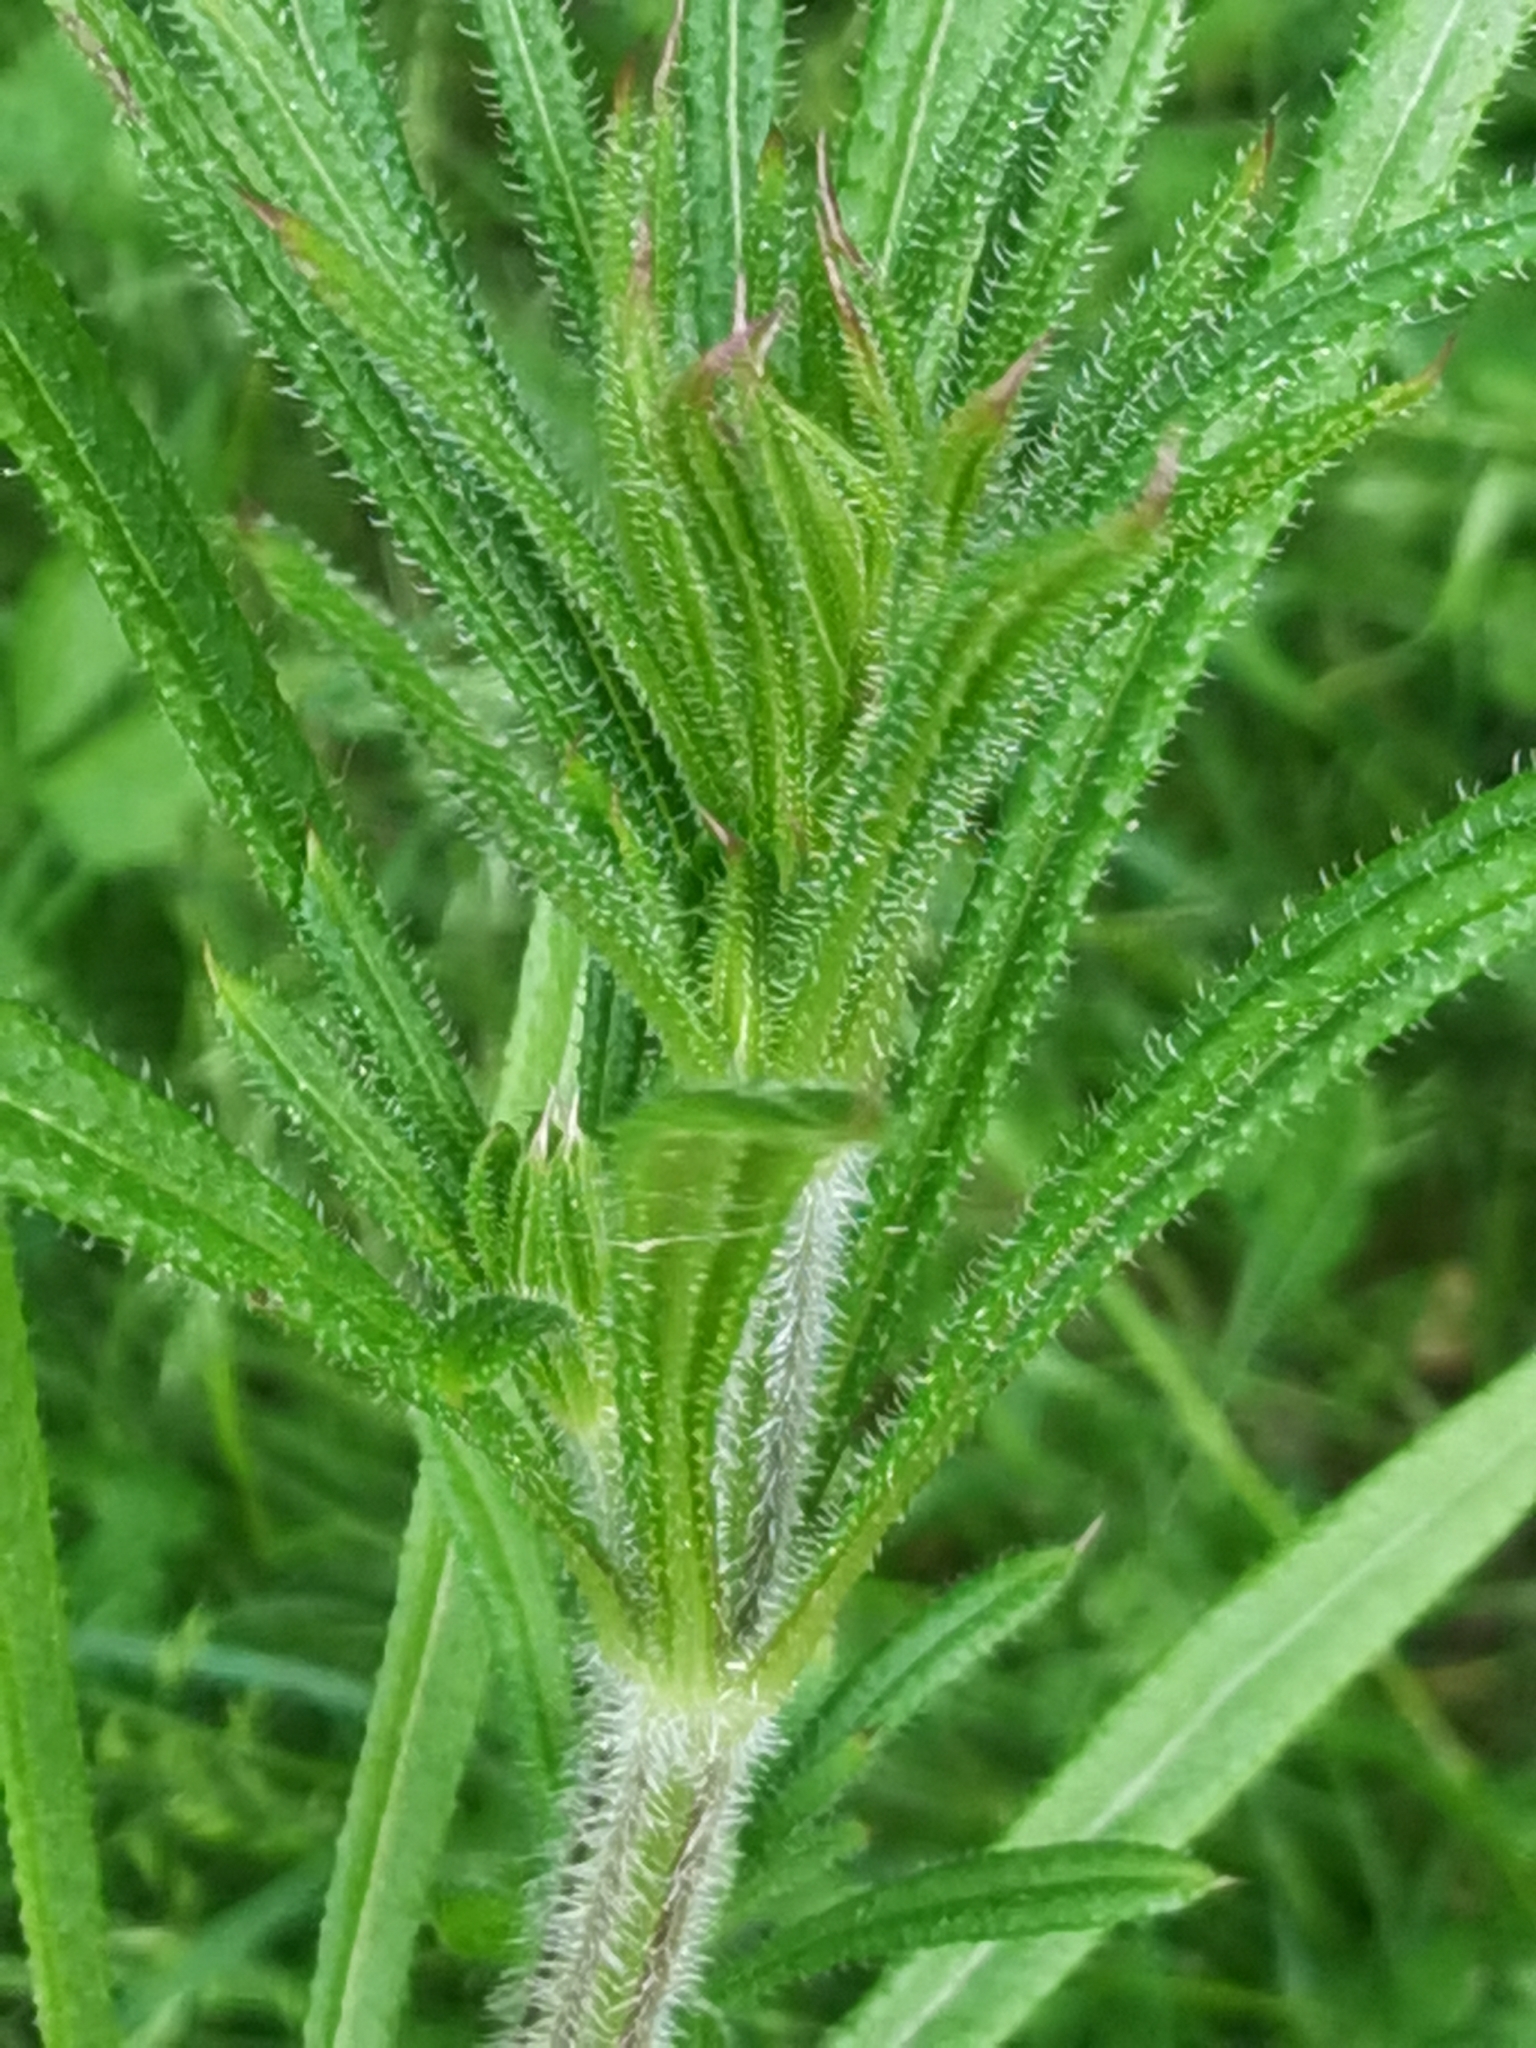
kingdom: Plantae
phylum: Tracheophyta
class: Magnoliopsida
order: Gentianales
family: Rubiaceae
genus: Galium
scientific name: Galium aparine
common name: Cleavers
